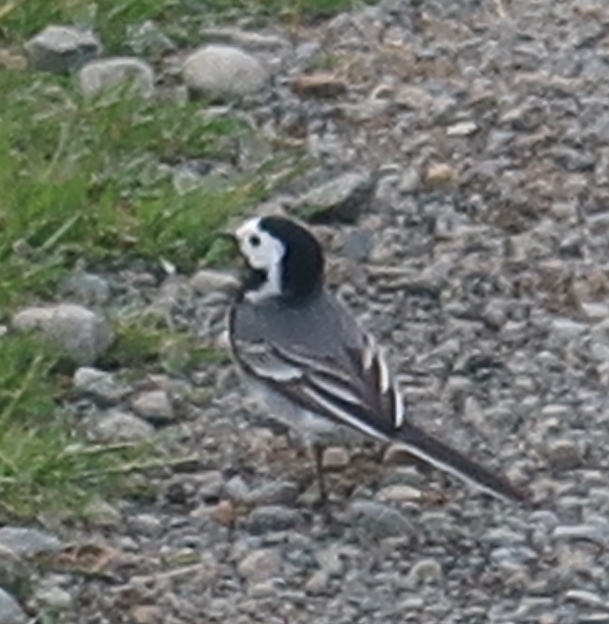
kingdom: Animalia
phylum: Chordata
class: Aves
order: Passeriformes
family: Motacillidae
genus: Motacilla
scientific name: Motacilla alba
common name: White wagtail
